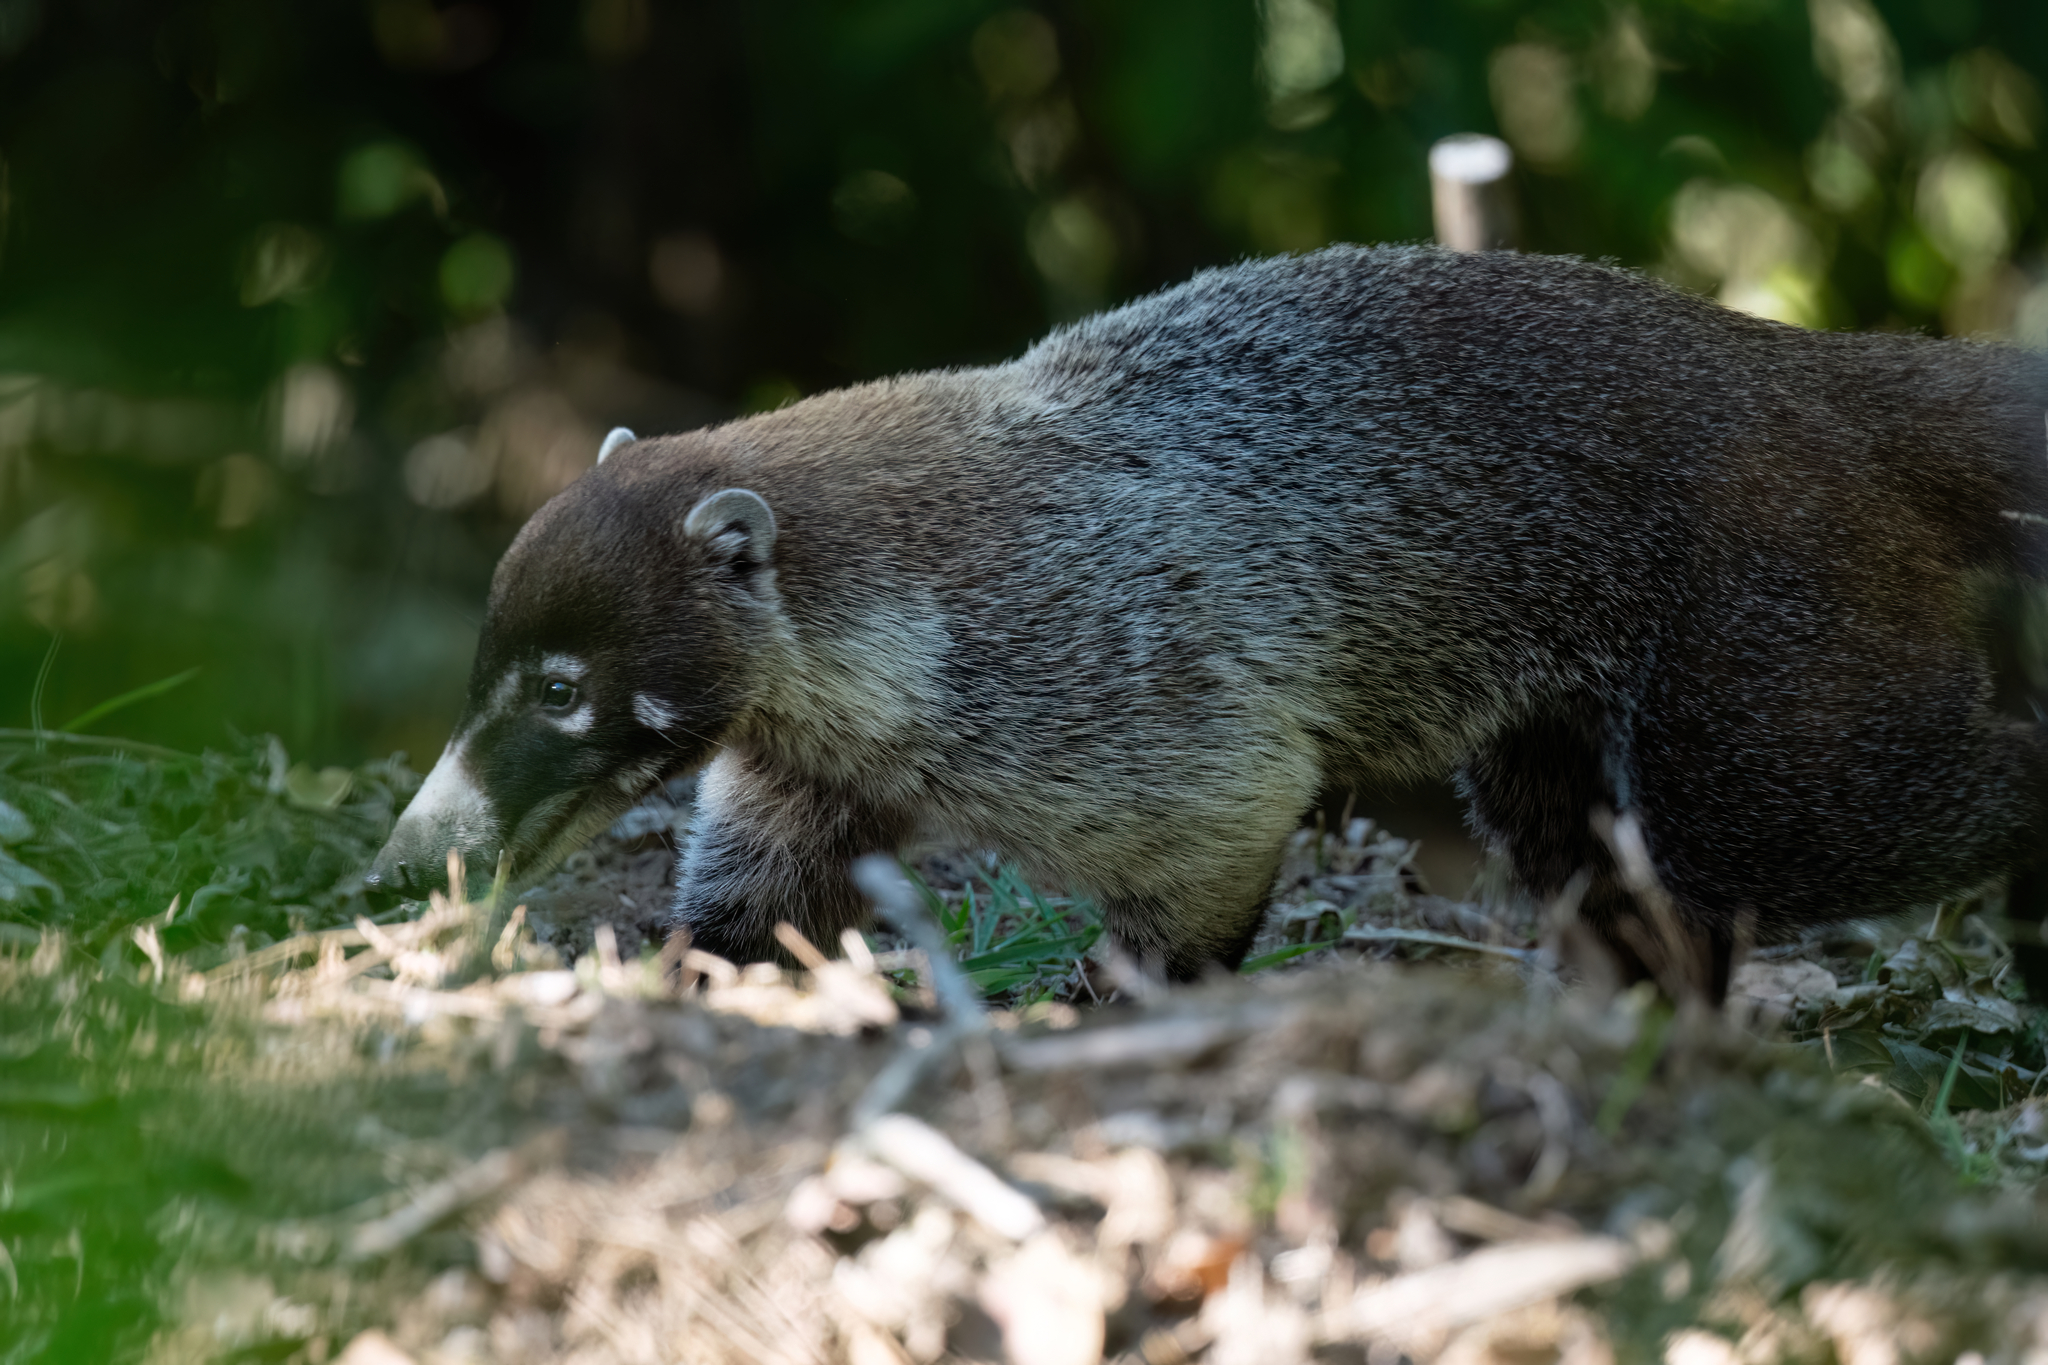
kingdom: Animalia
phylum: Chordata
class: Mammalia
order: Carnivora
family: Procyonidae
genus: Nasua
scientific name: Nasua narica
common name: White-nosed coati
